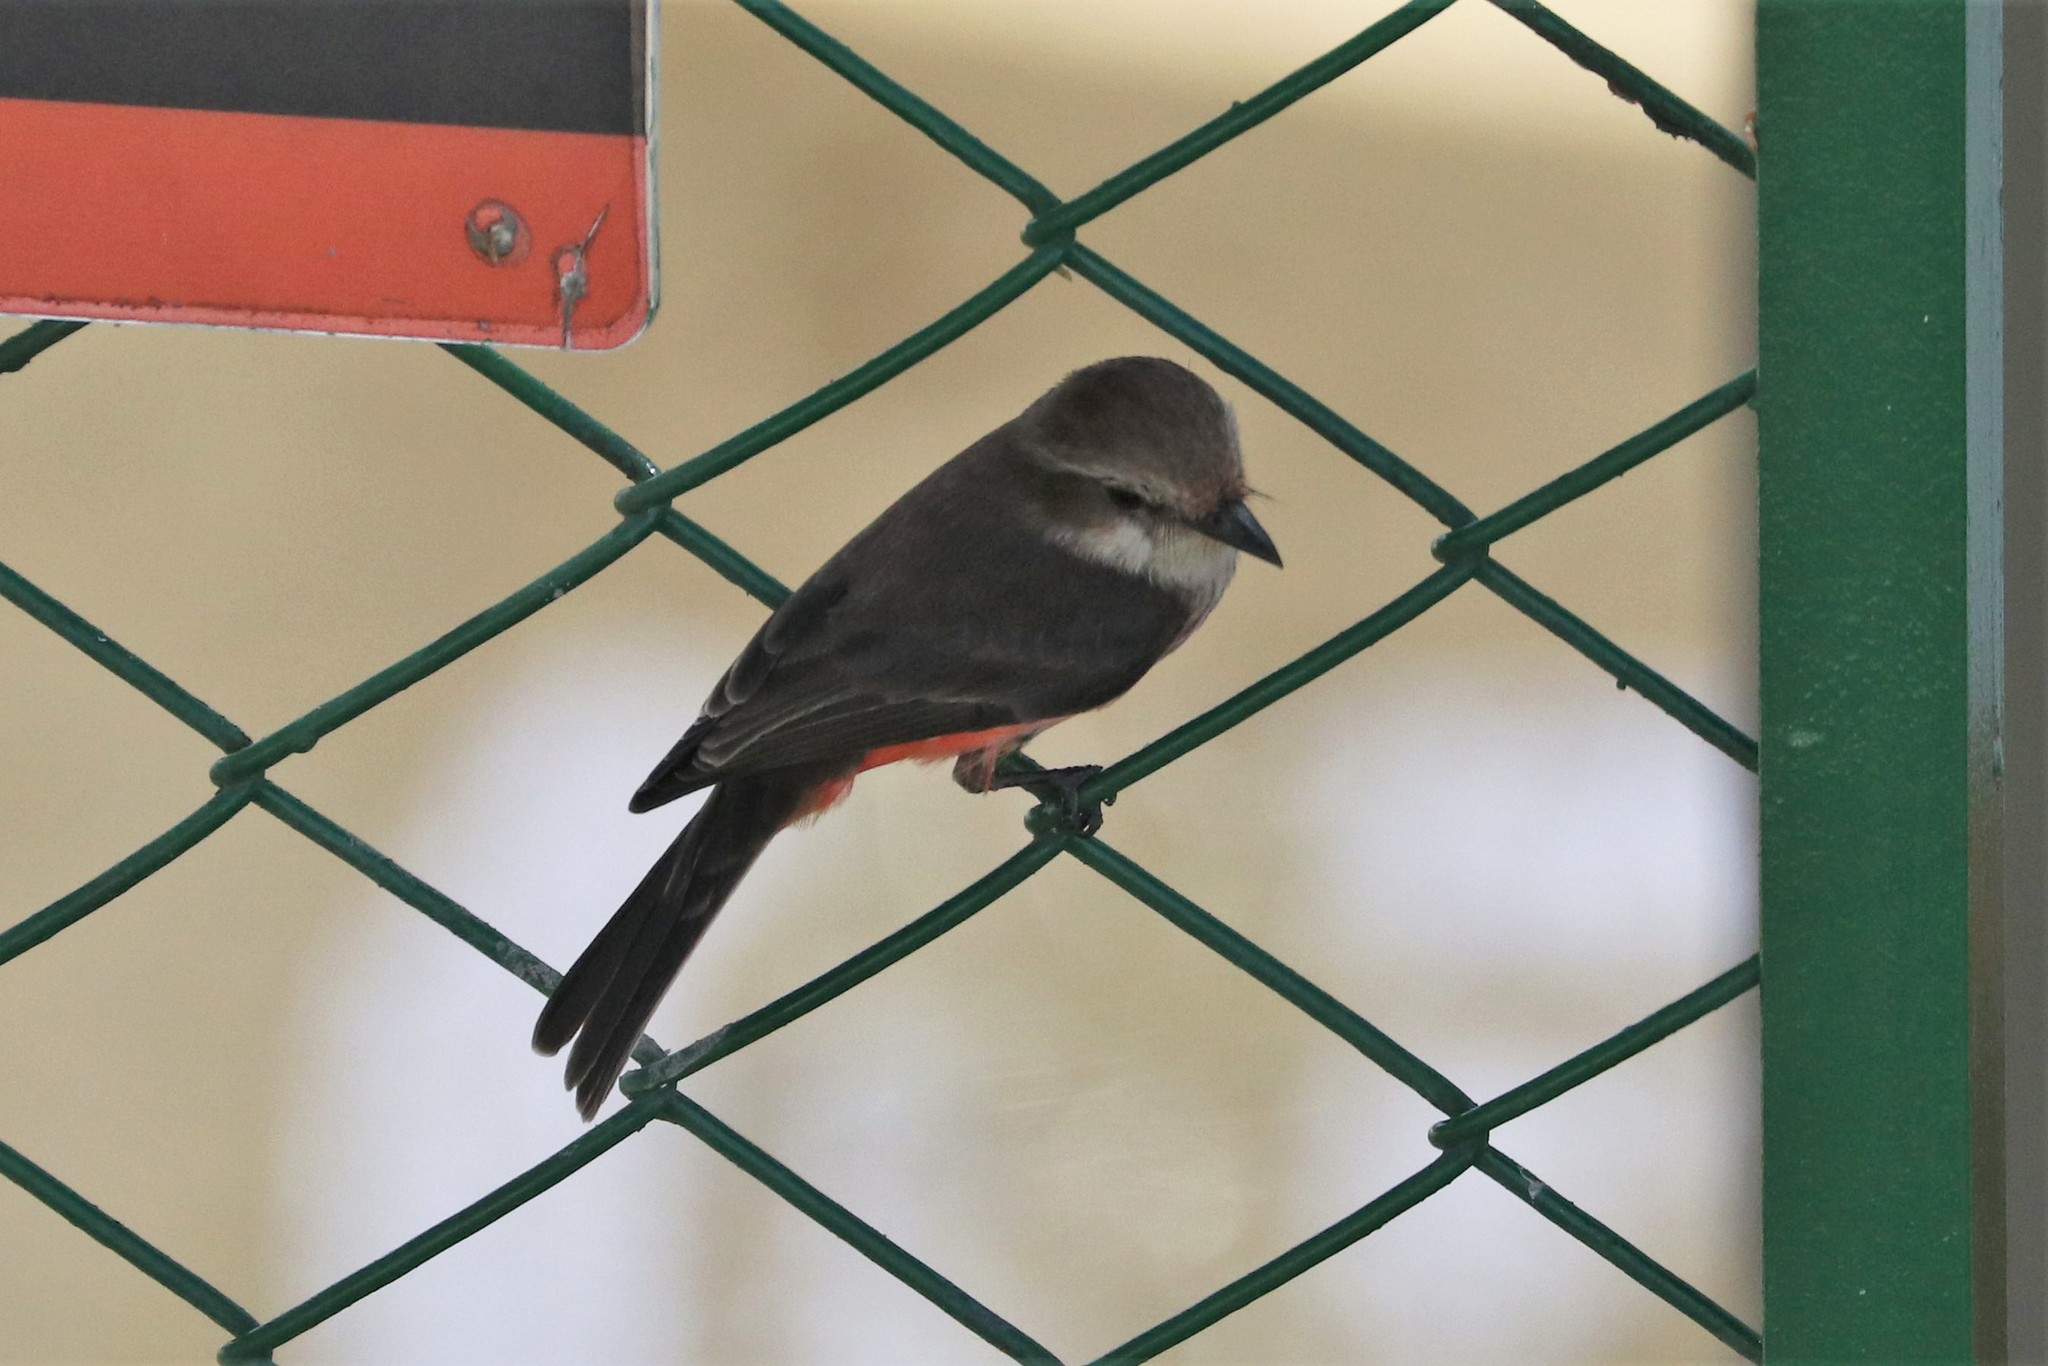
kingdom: Animalia
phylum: Chordata
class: Aves
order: Passeriformes
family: Tyrannidae
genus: Pyrocephalus
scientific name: Pyrocephalus rubinus
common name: Vermilion flycatcher
